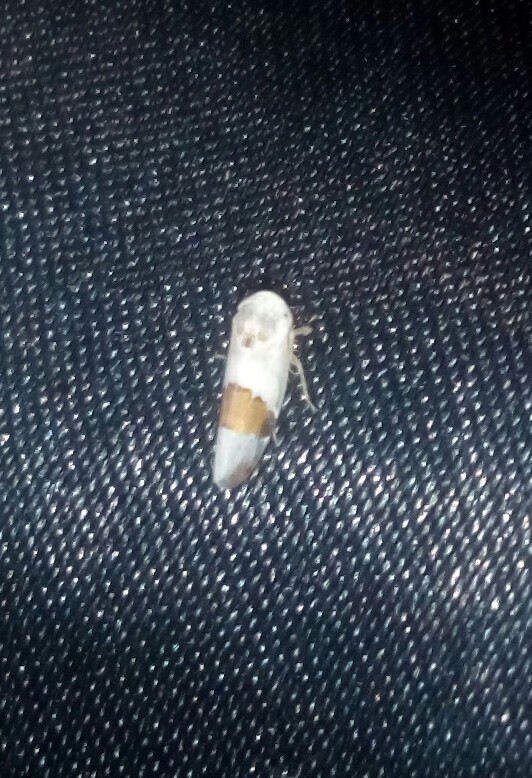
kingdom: Animalia
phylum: Arthropoda
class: Insecta
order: Hemiptera
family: Cicadellidae
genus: Norvellina
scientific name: Norvellina seminuda
